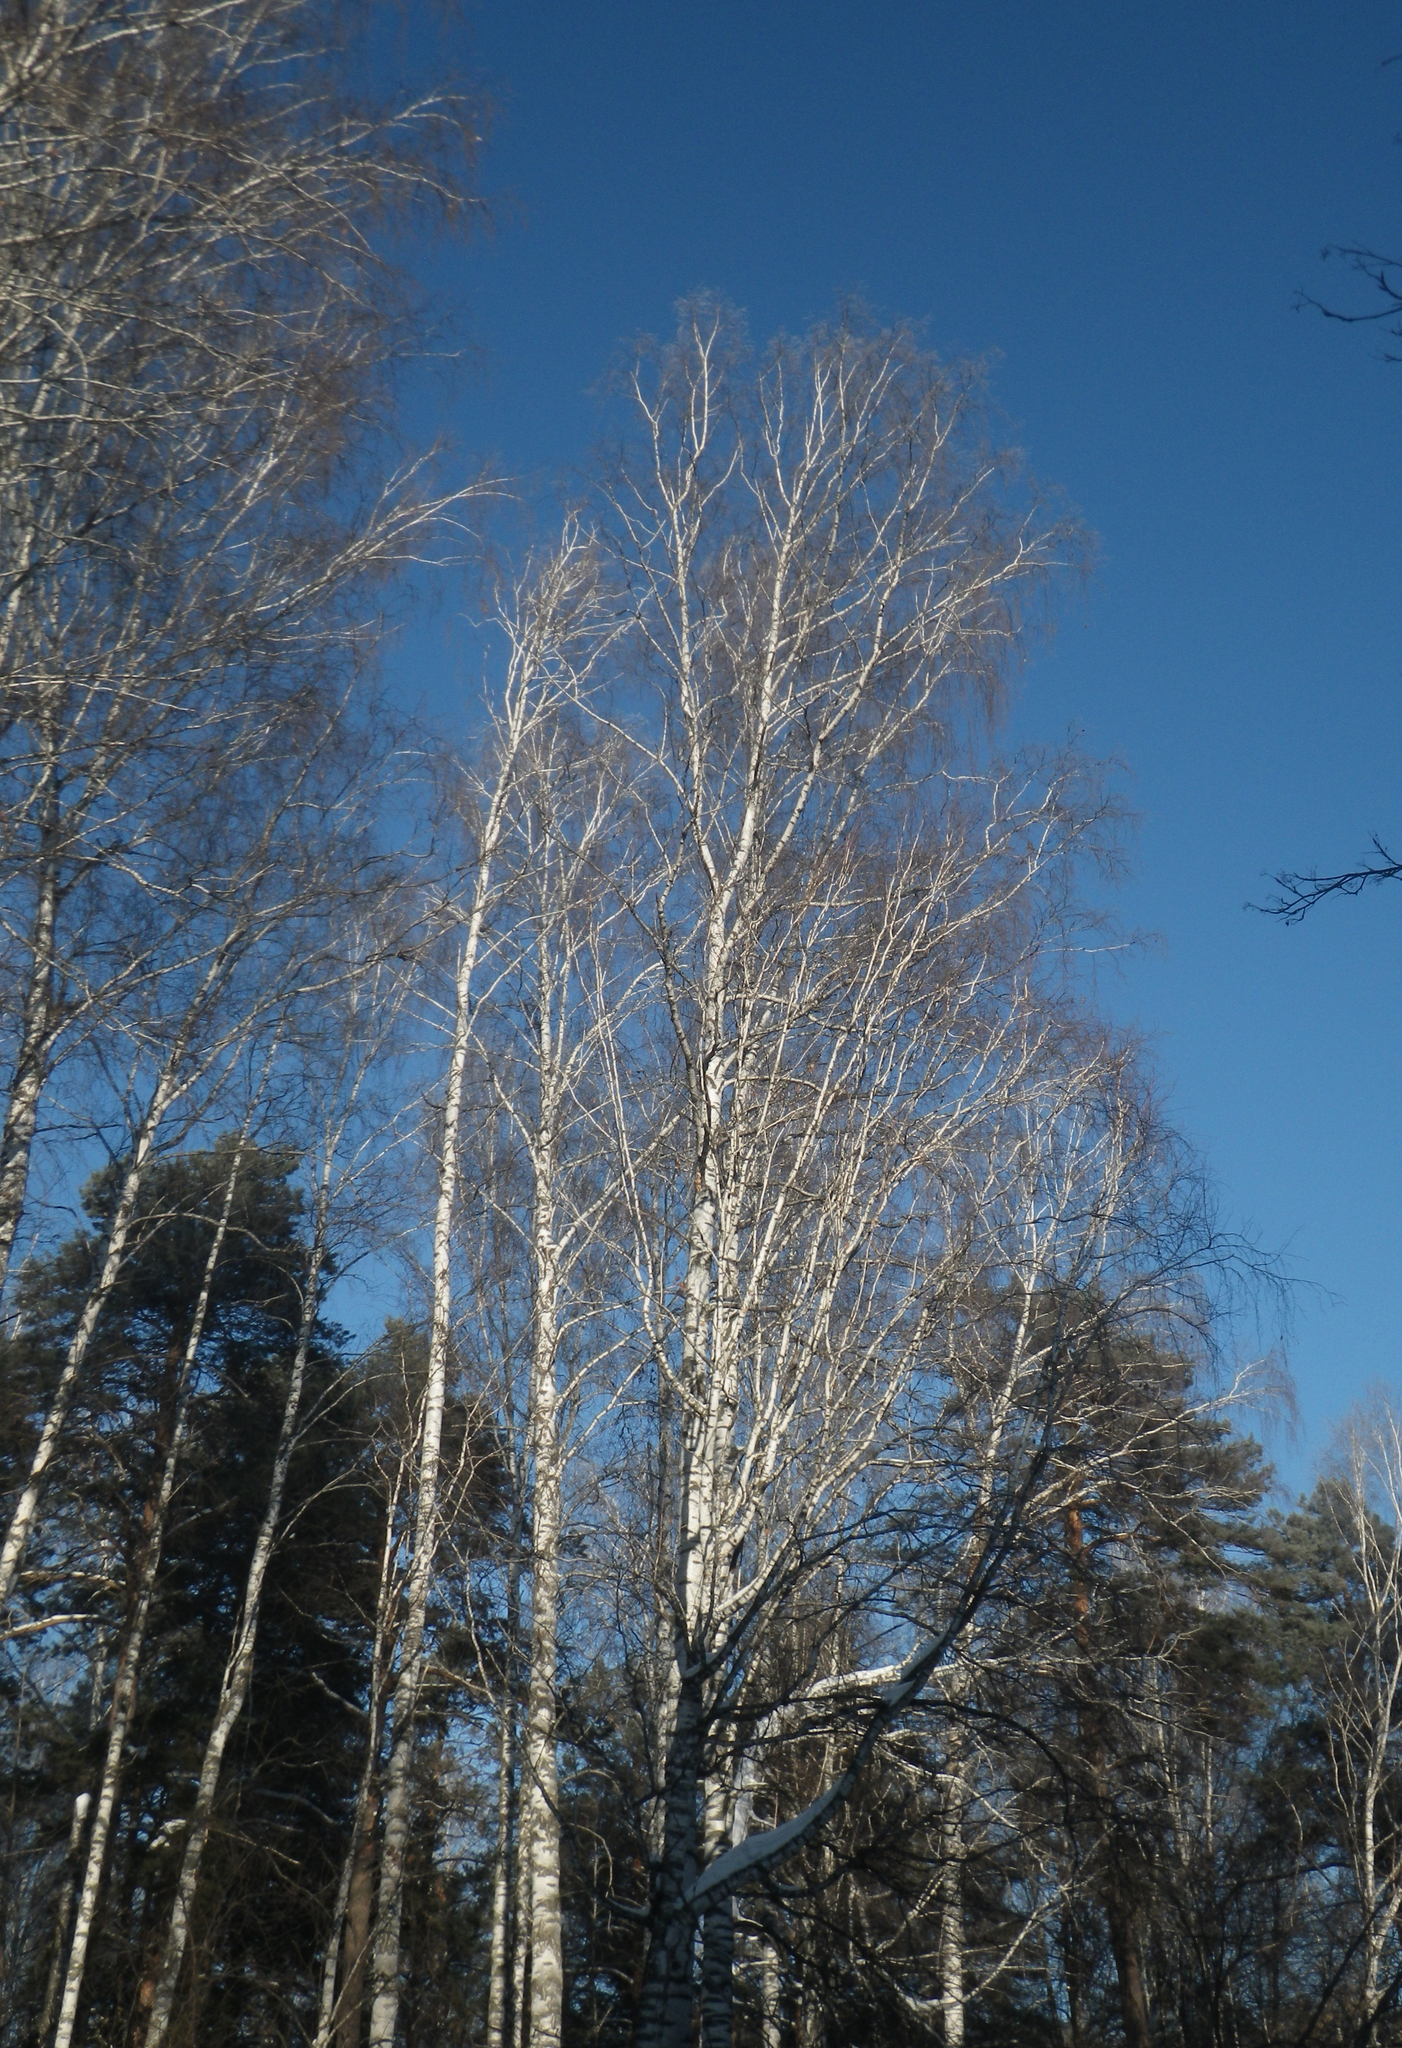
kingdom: Plantae
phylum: Tracheophyta
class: Magnoliopsida
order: Fagales
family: Betulaceae
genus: Betula
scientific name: Betula pendula
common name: Silver birch
